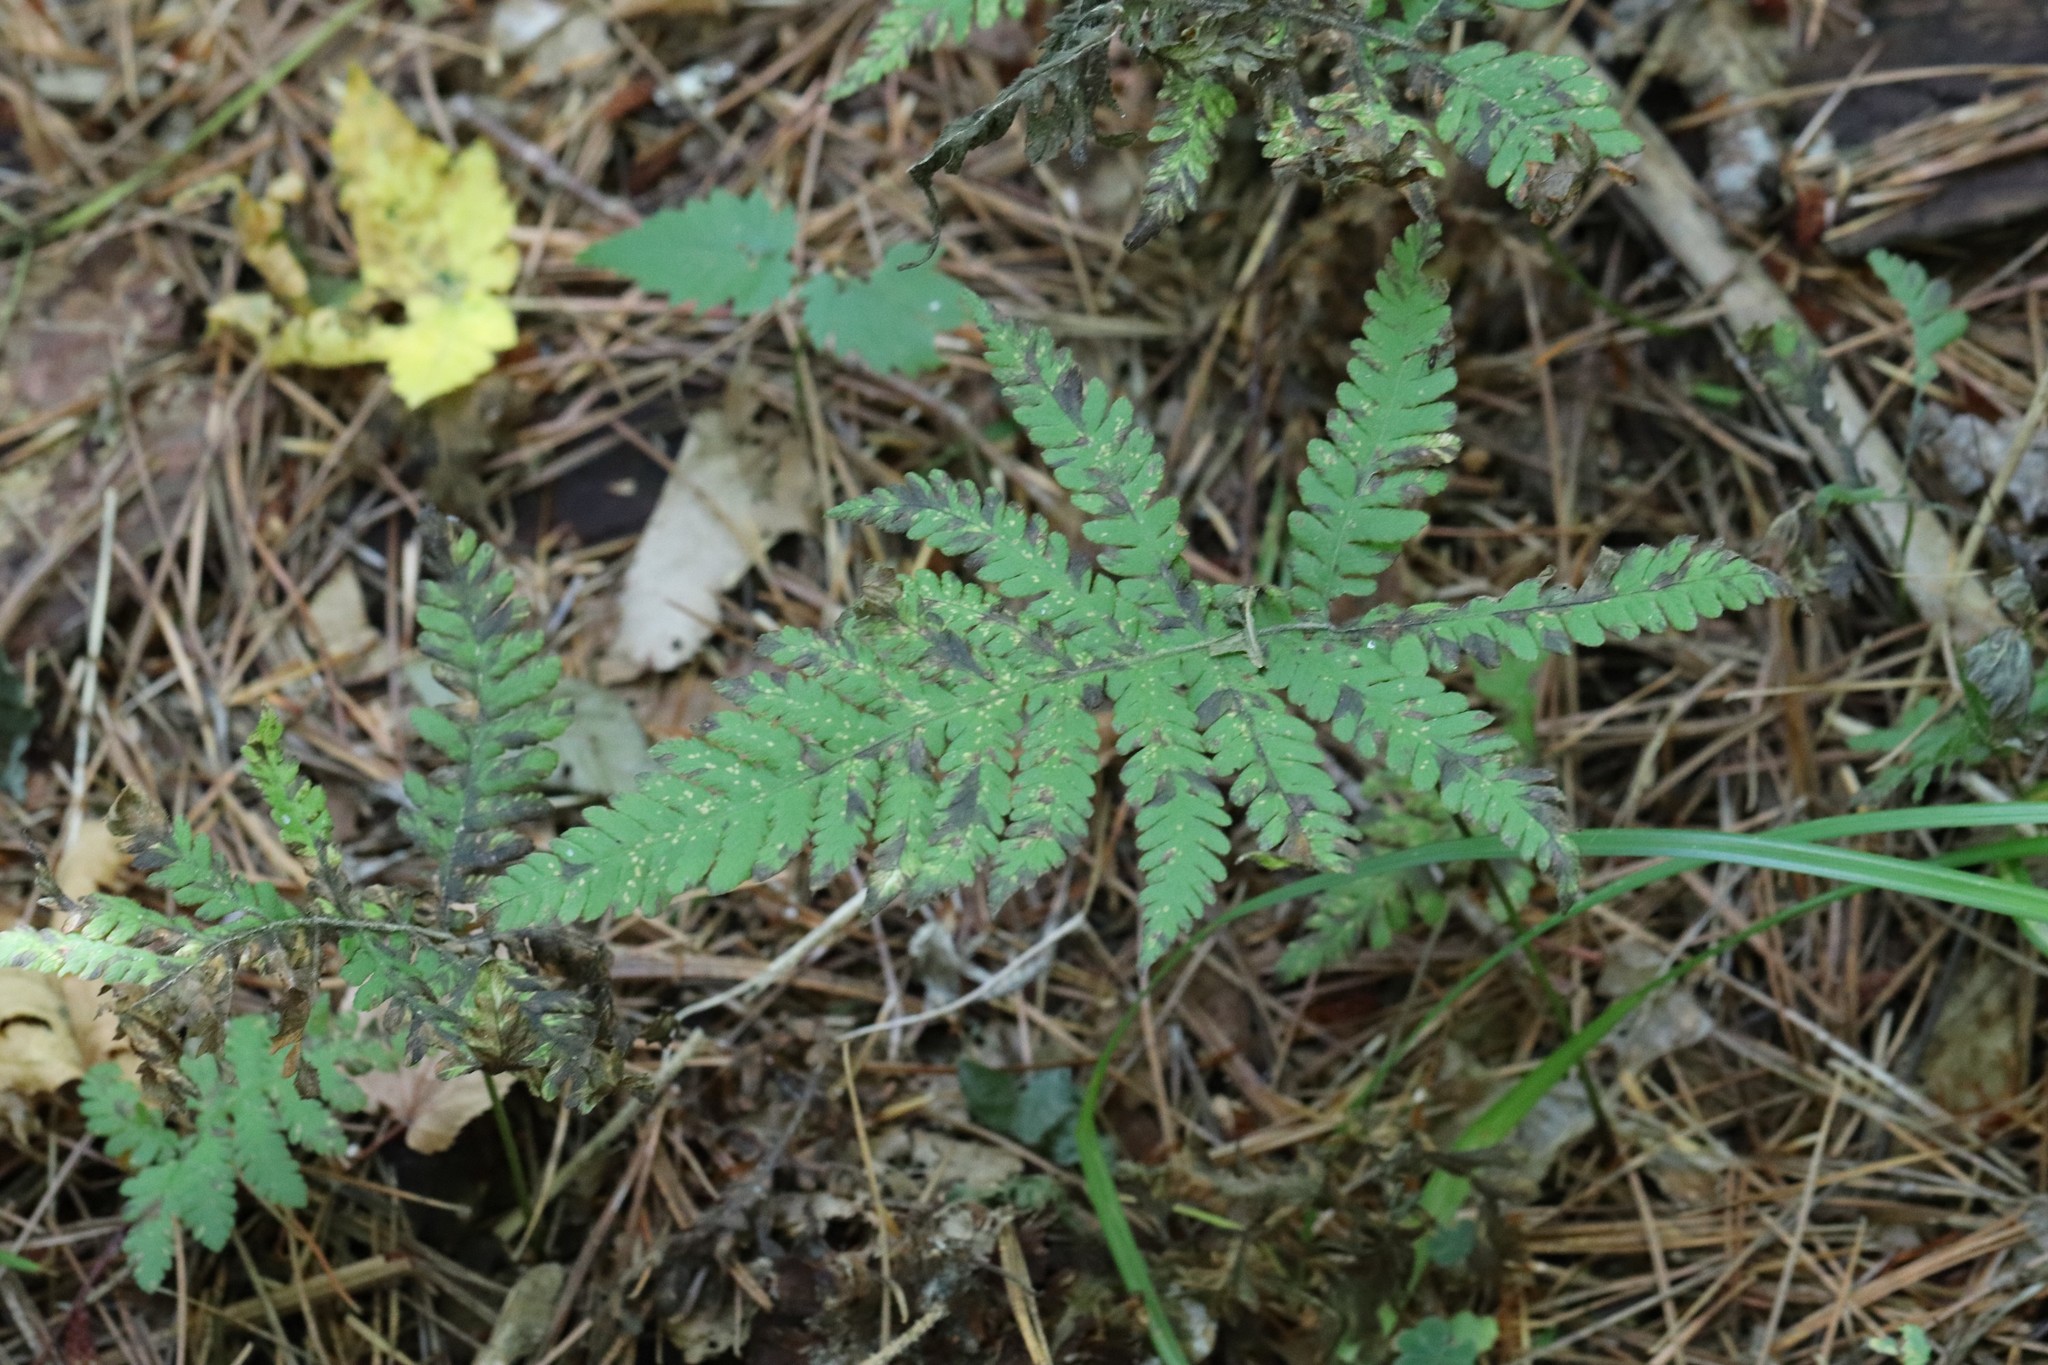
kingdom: Plantae
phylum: Tracheophyta
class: Polypodiopsida
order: Polypodiales
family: Thelypteridaceae
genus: Phegopteris
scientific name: Phegopteris connectilis
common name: Beech fern
